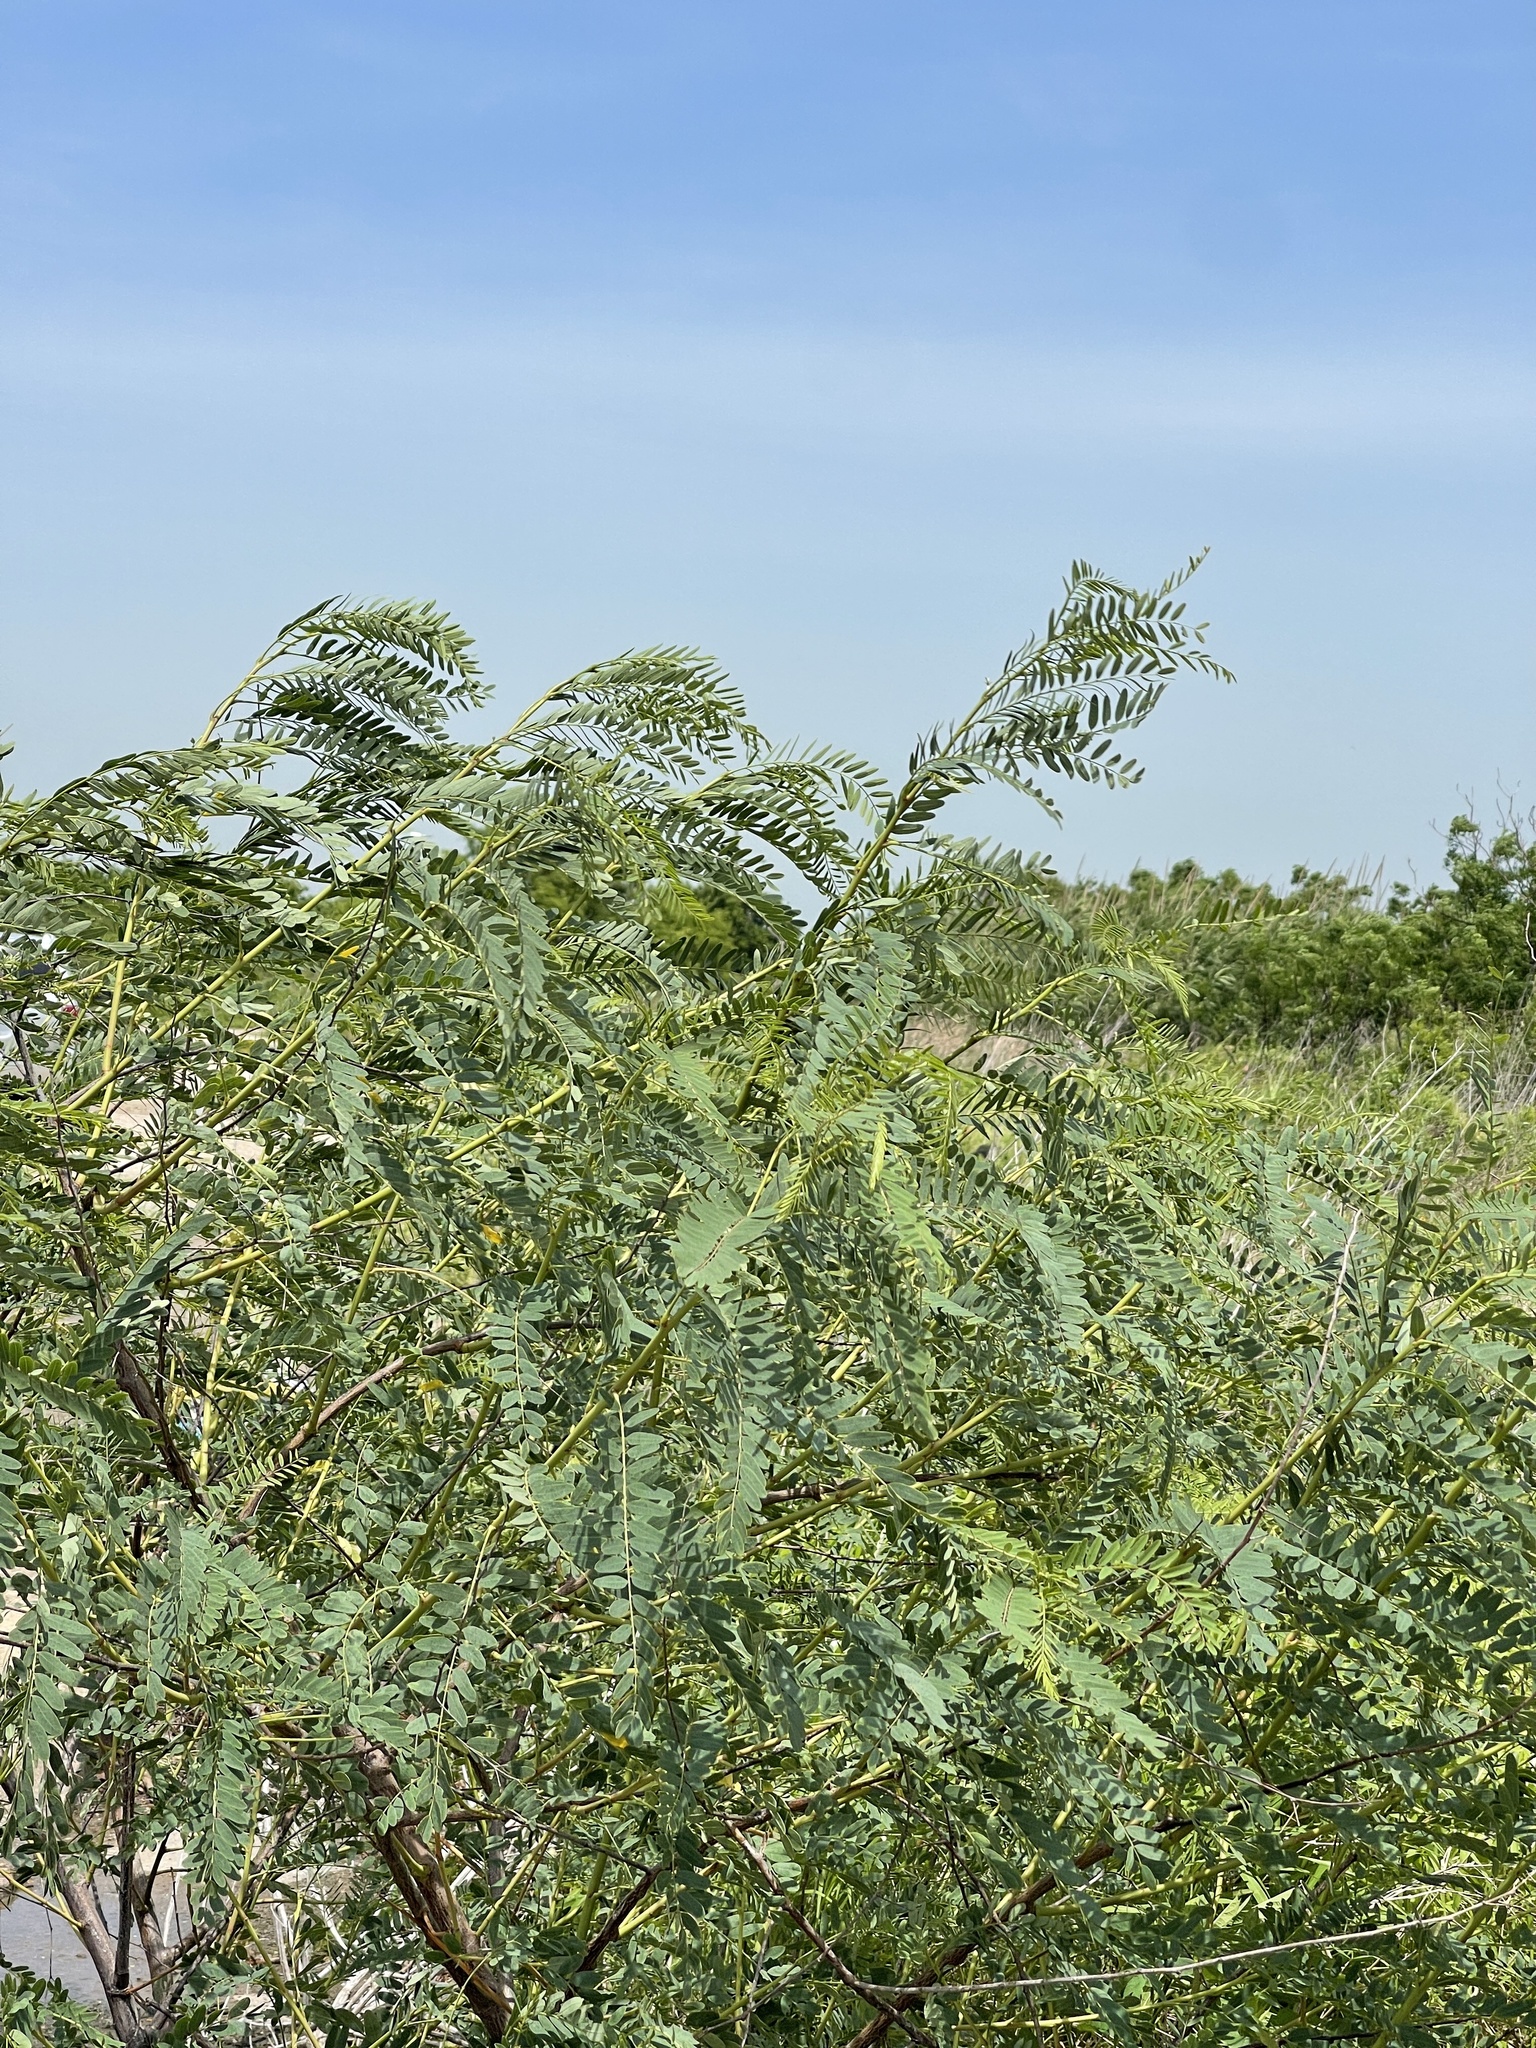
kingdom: Plantae
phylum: Tracheophyta
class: Magnoliopsida
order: Fabales
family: Fabaceae
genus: Sesbania
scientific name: Sesbania drummondii
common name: Poison-bean
